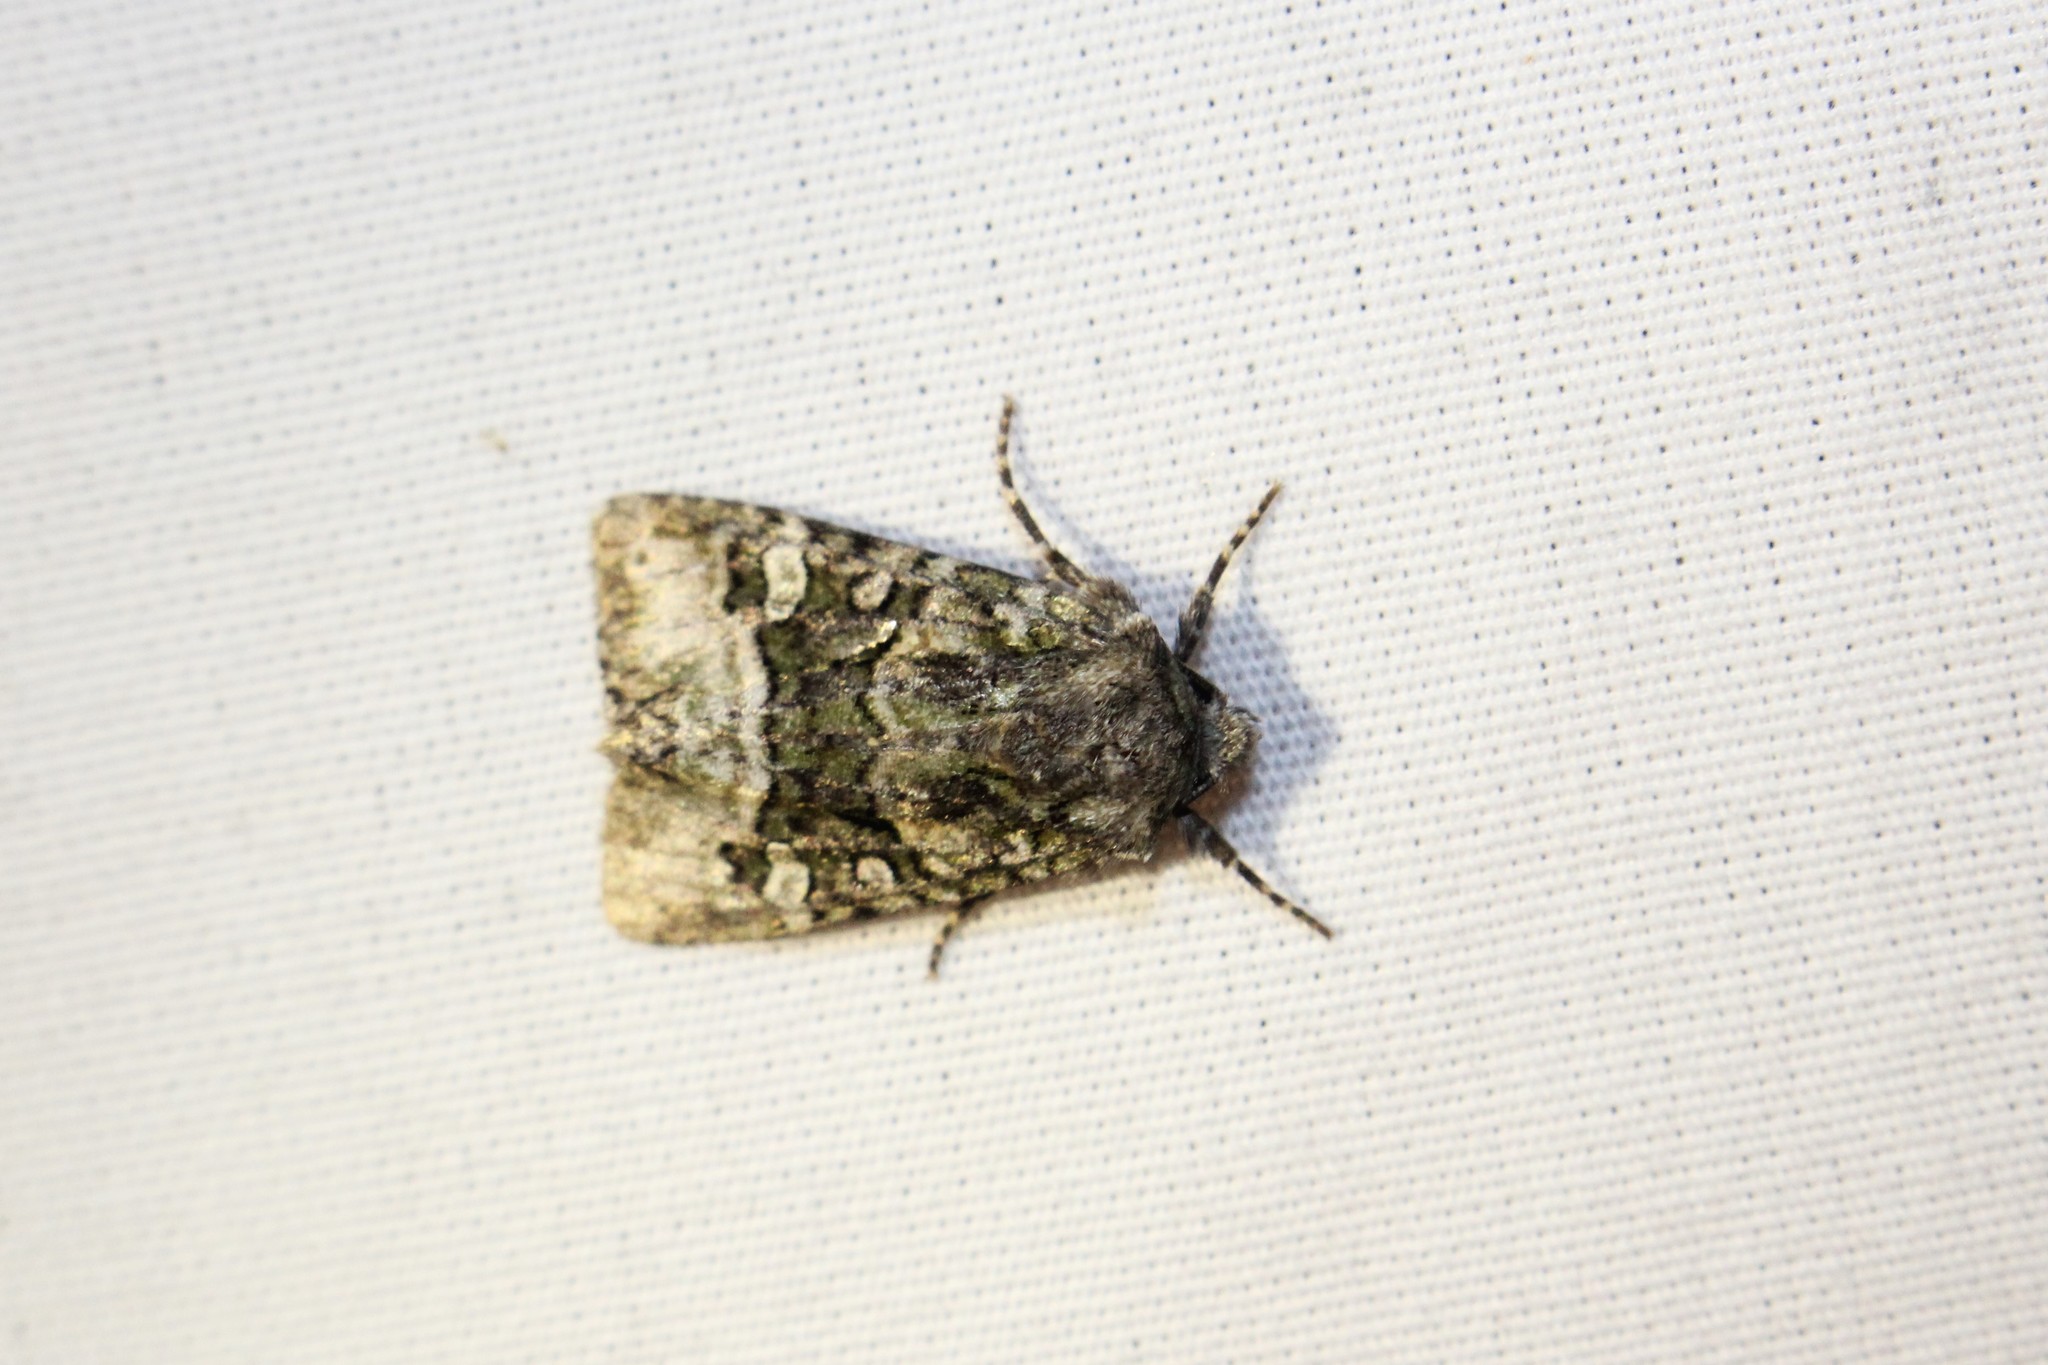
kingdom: Animalia
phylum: Arthropoda
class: Insecta
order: Lepidoptera
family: Noctuidae
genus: Lacinipolia
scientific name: Lacinipolia olivacea
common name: Olive arches moth
